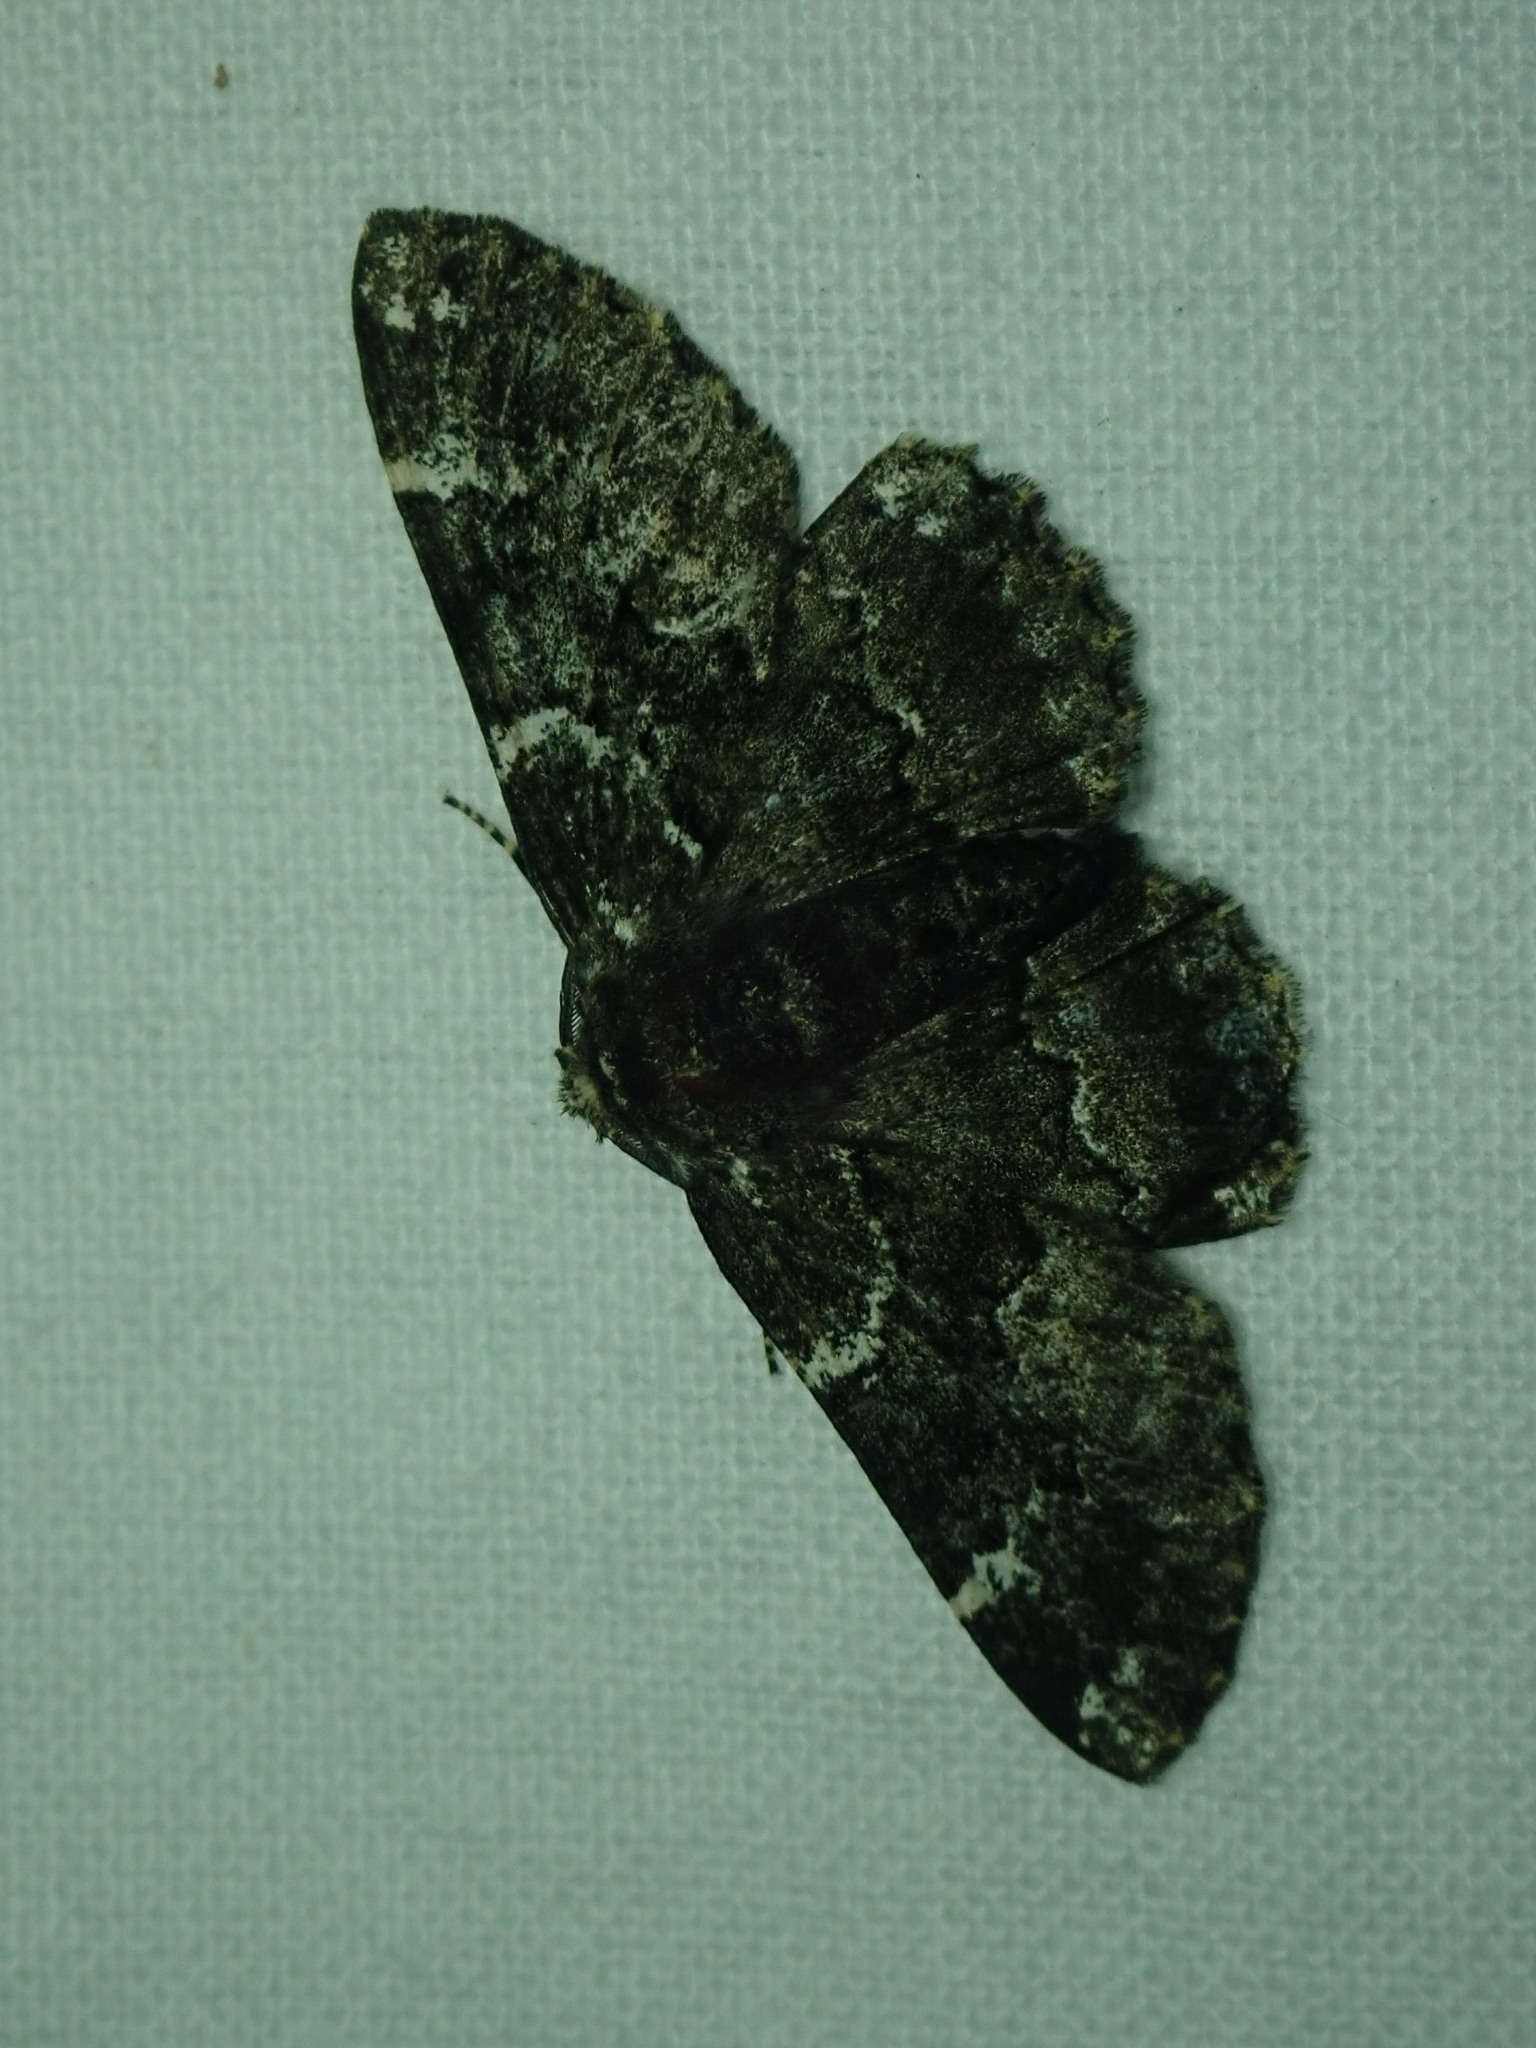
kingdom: Animalia
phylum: Arthropoda
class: Insecta
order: Lepidoptera
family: Geometridae
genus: Phaeoura
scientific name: Phaeoura quernaria
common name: Oak beauty
